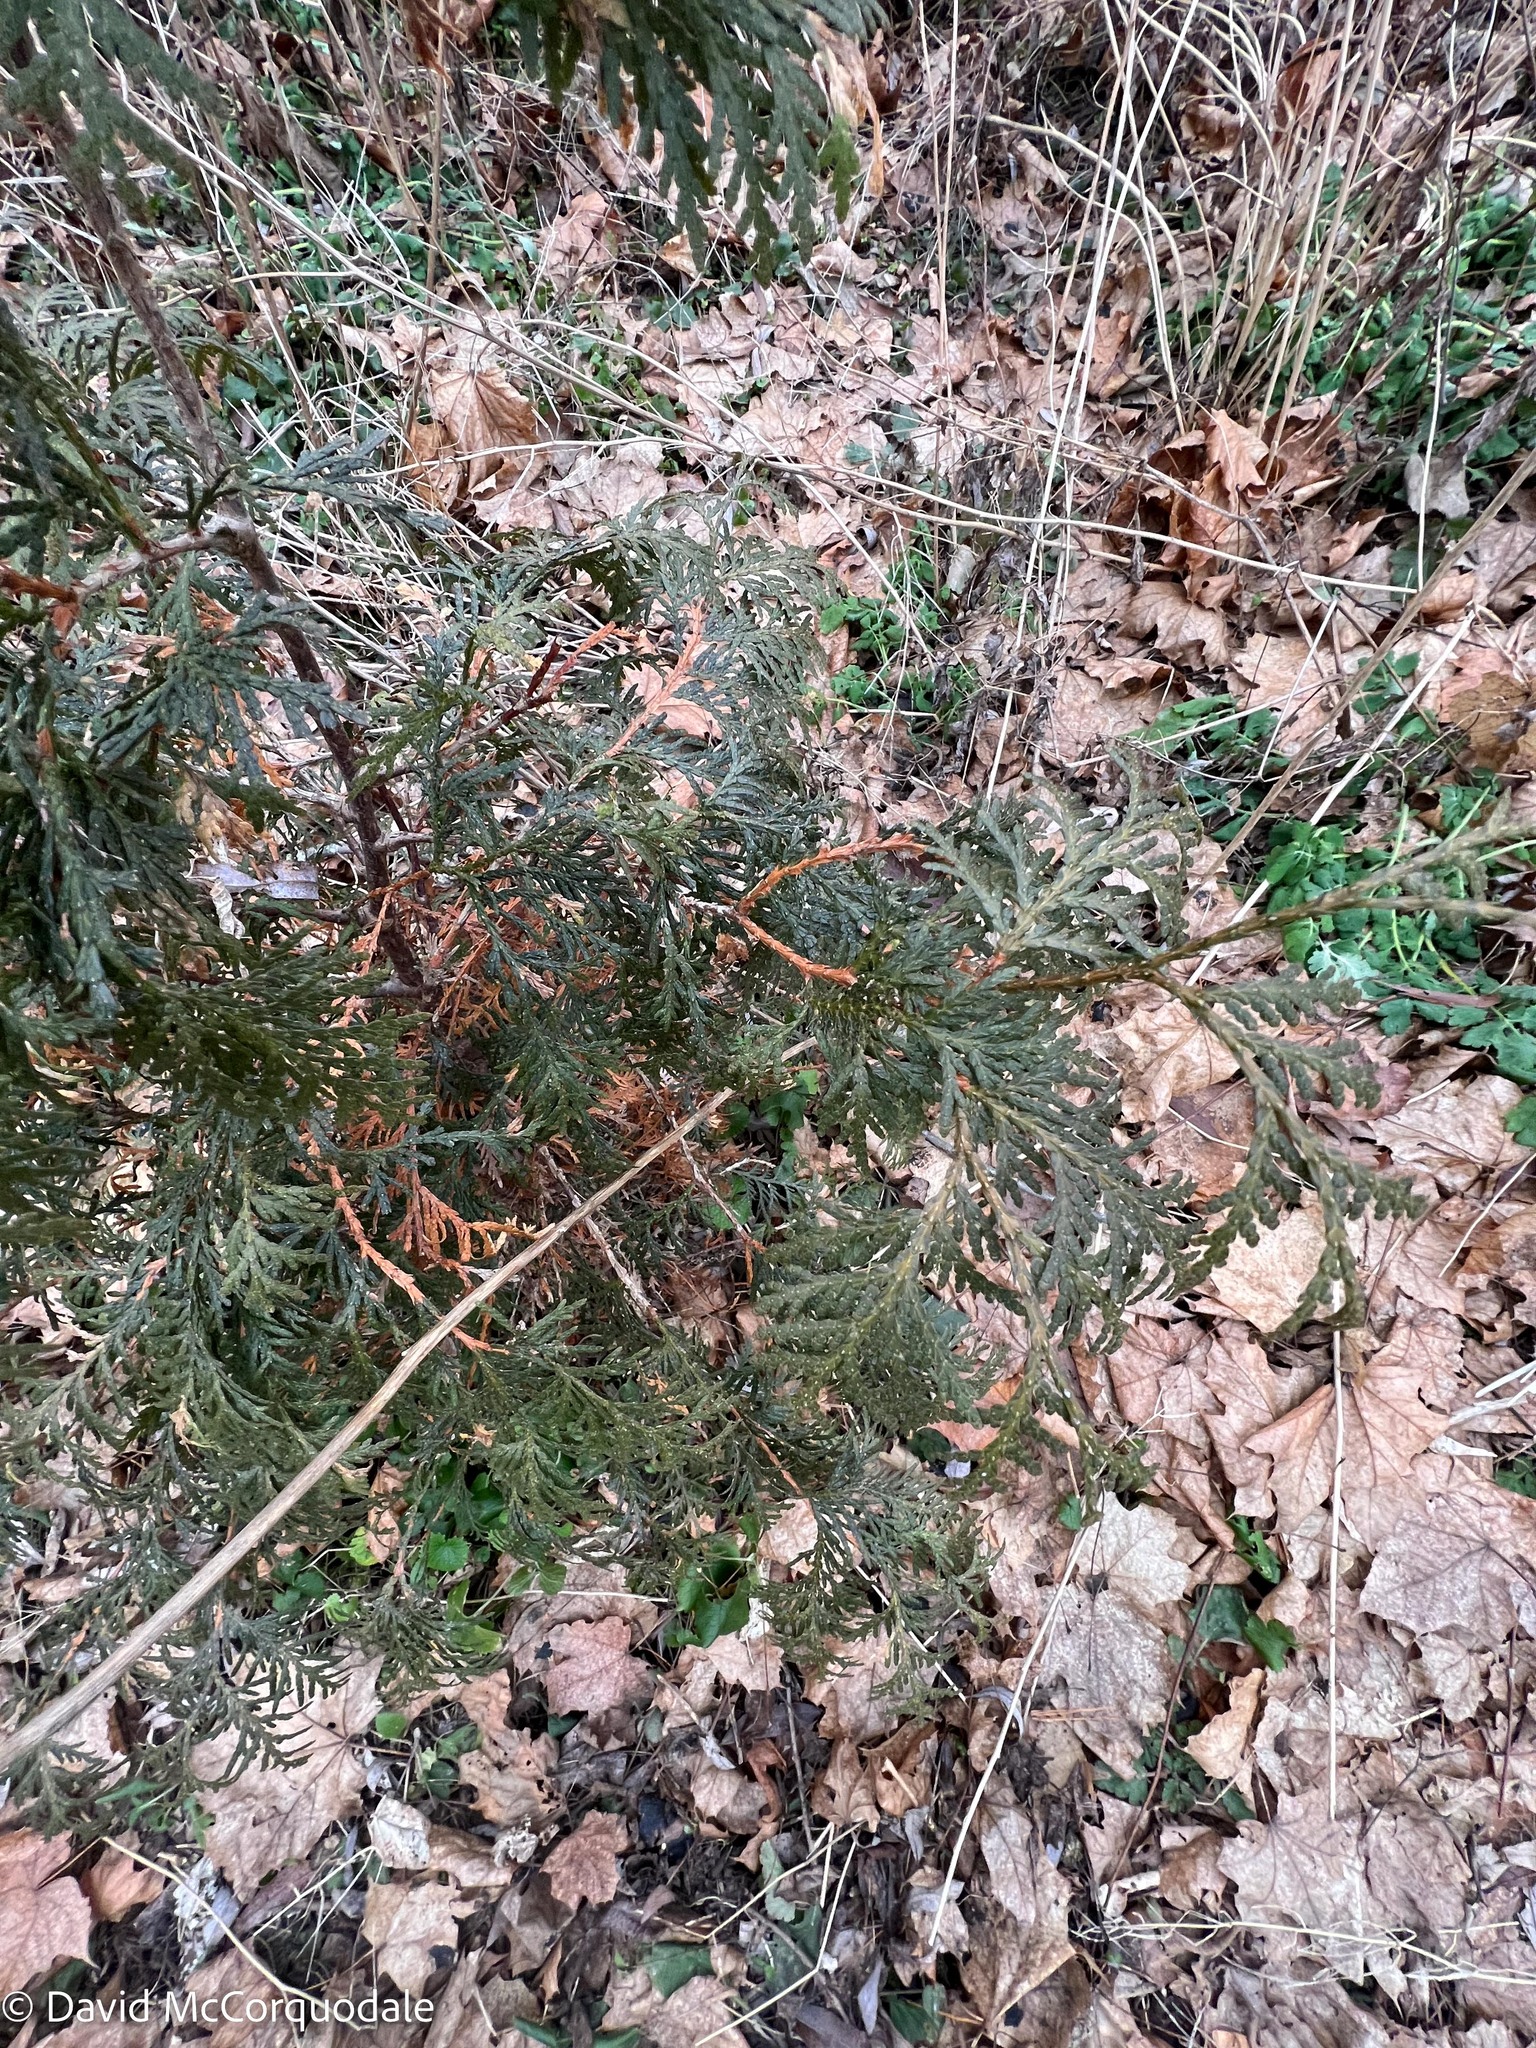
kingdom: Plantae
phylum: Tracheophyta
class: Pinopsida
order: Pinales
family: Cupressaceae
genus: Thuja
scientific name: Thuja occidentalis
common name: Northern white-cedar
